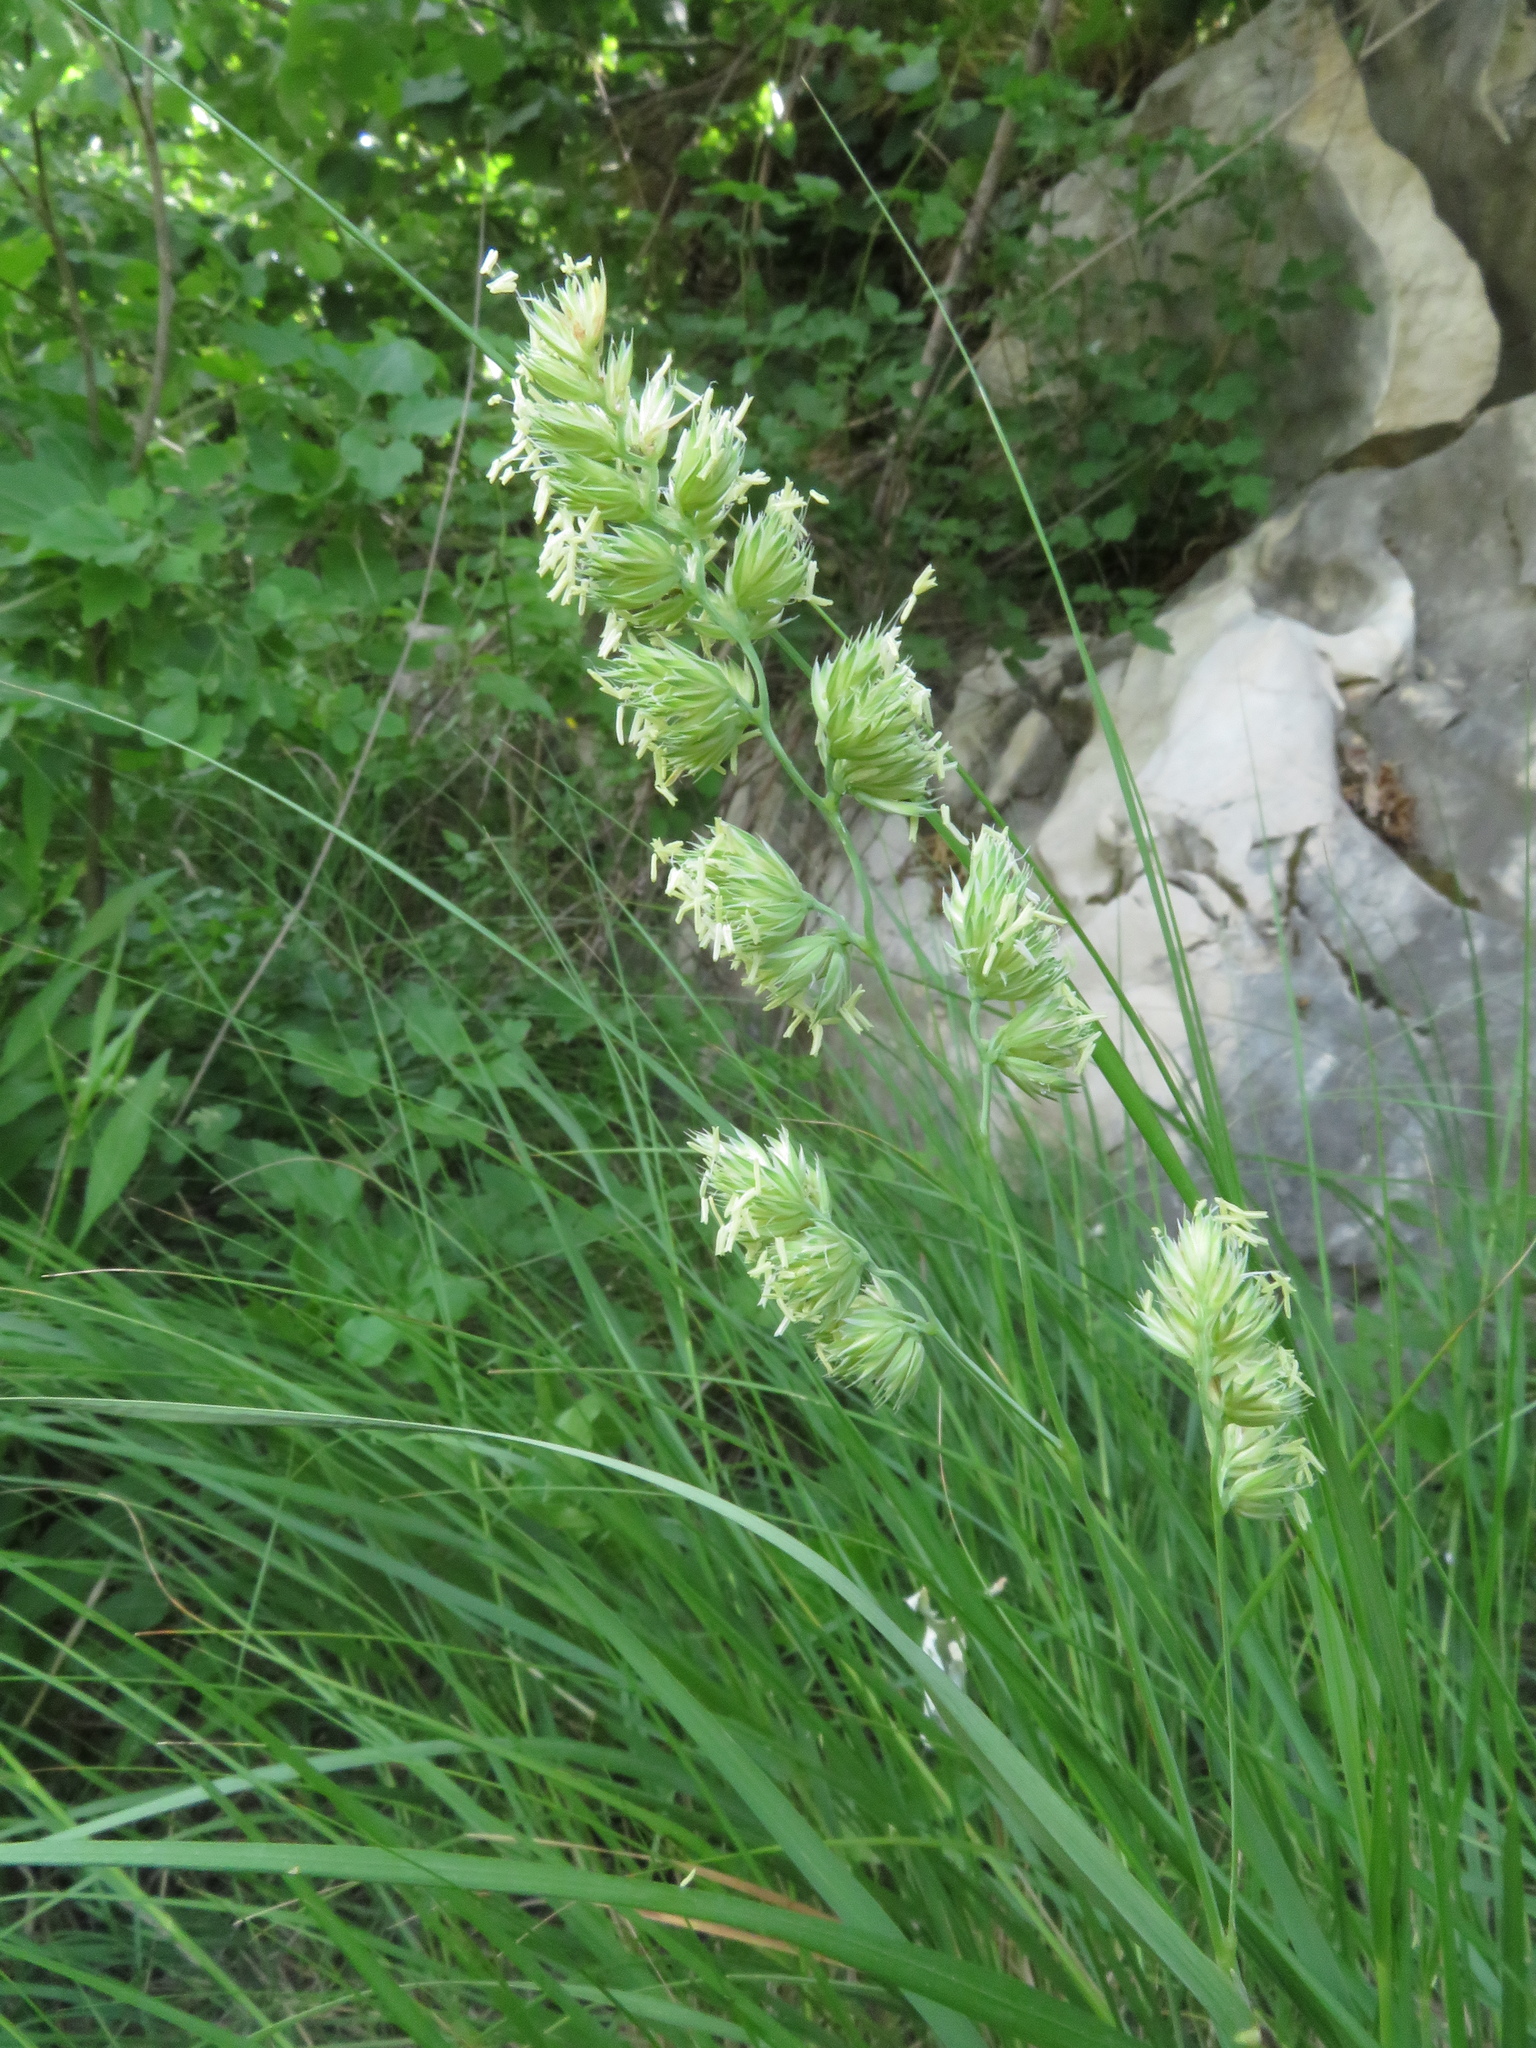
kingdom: Plantae
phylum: Tracheophyta
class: Liliopsida
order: Poales
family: Poaceae
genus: Dactylis
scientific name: Dactylis glomerata
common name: Orchardgrass
